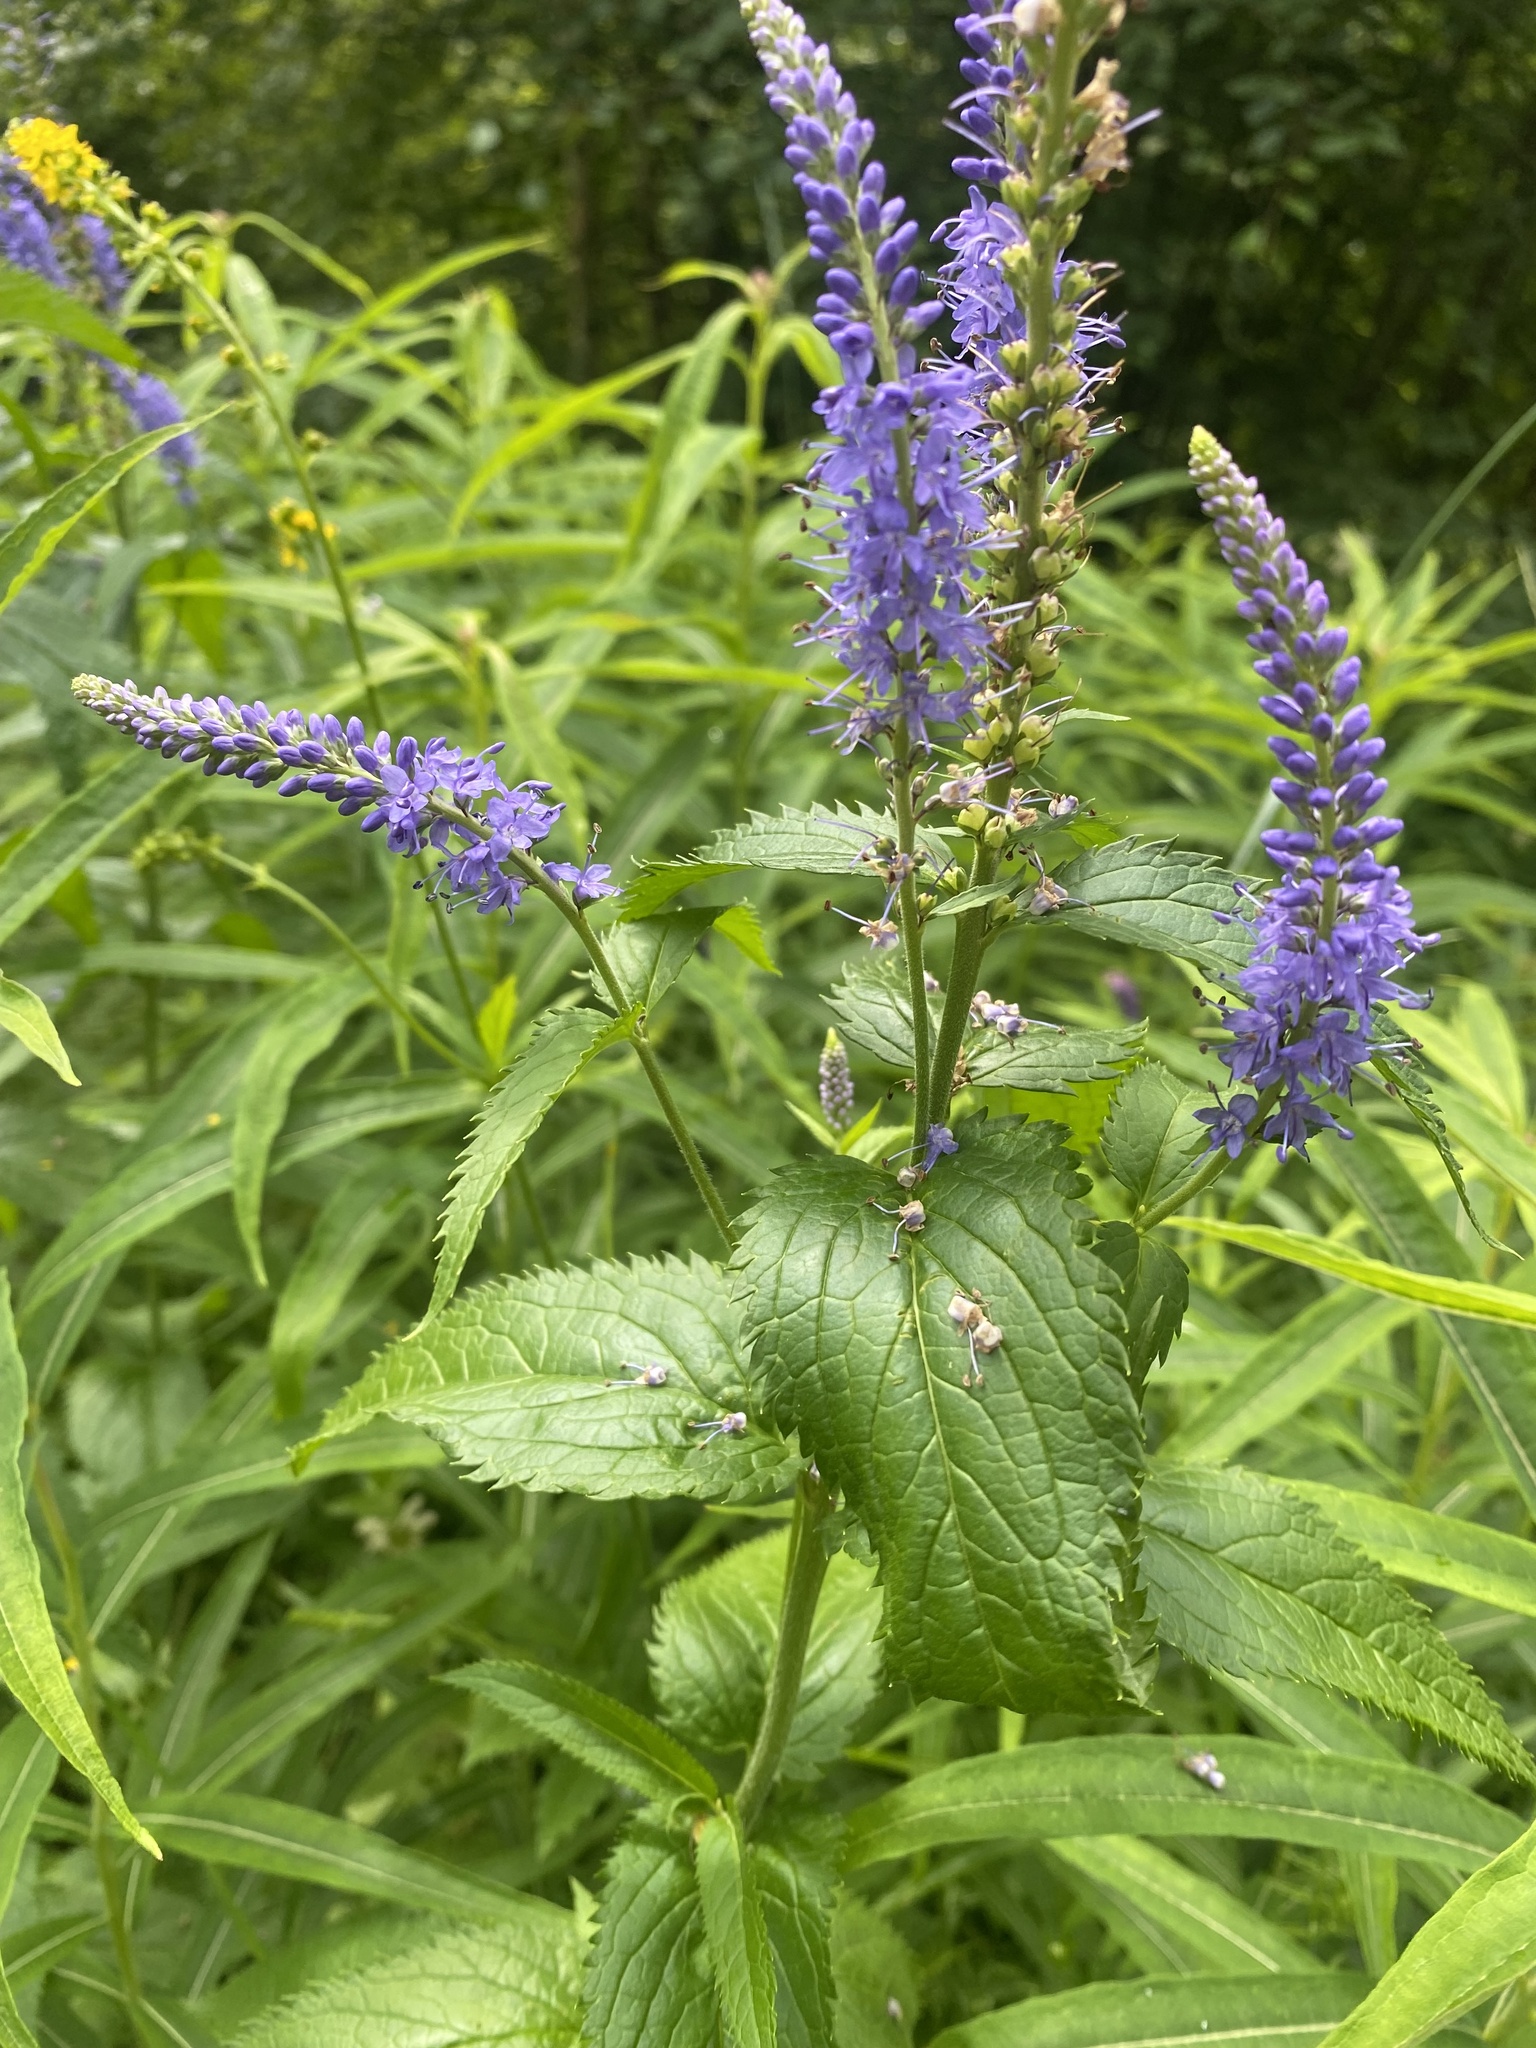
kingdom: Plantae
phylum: Tracheophyta
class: Magnoliopsida
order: Lamiales
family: Plantaginaceae
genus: Veronica
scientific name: Veronica longifolia
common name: Garden speedwell
